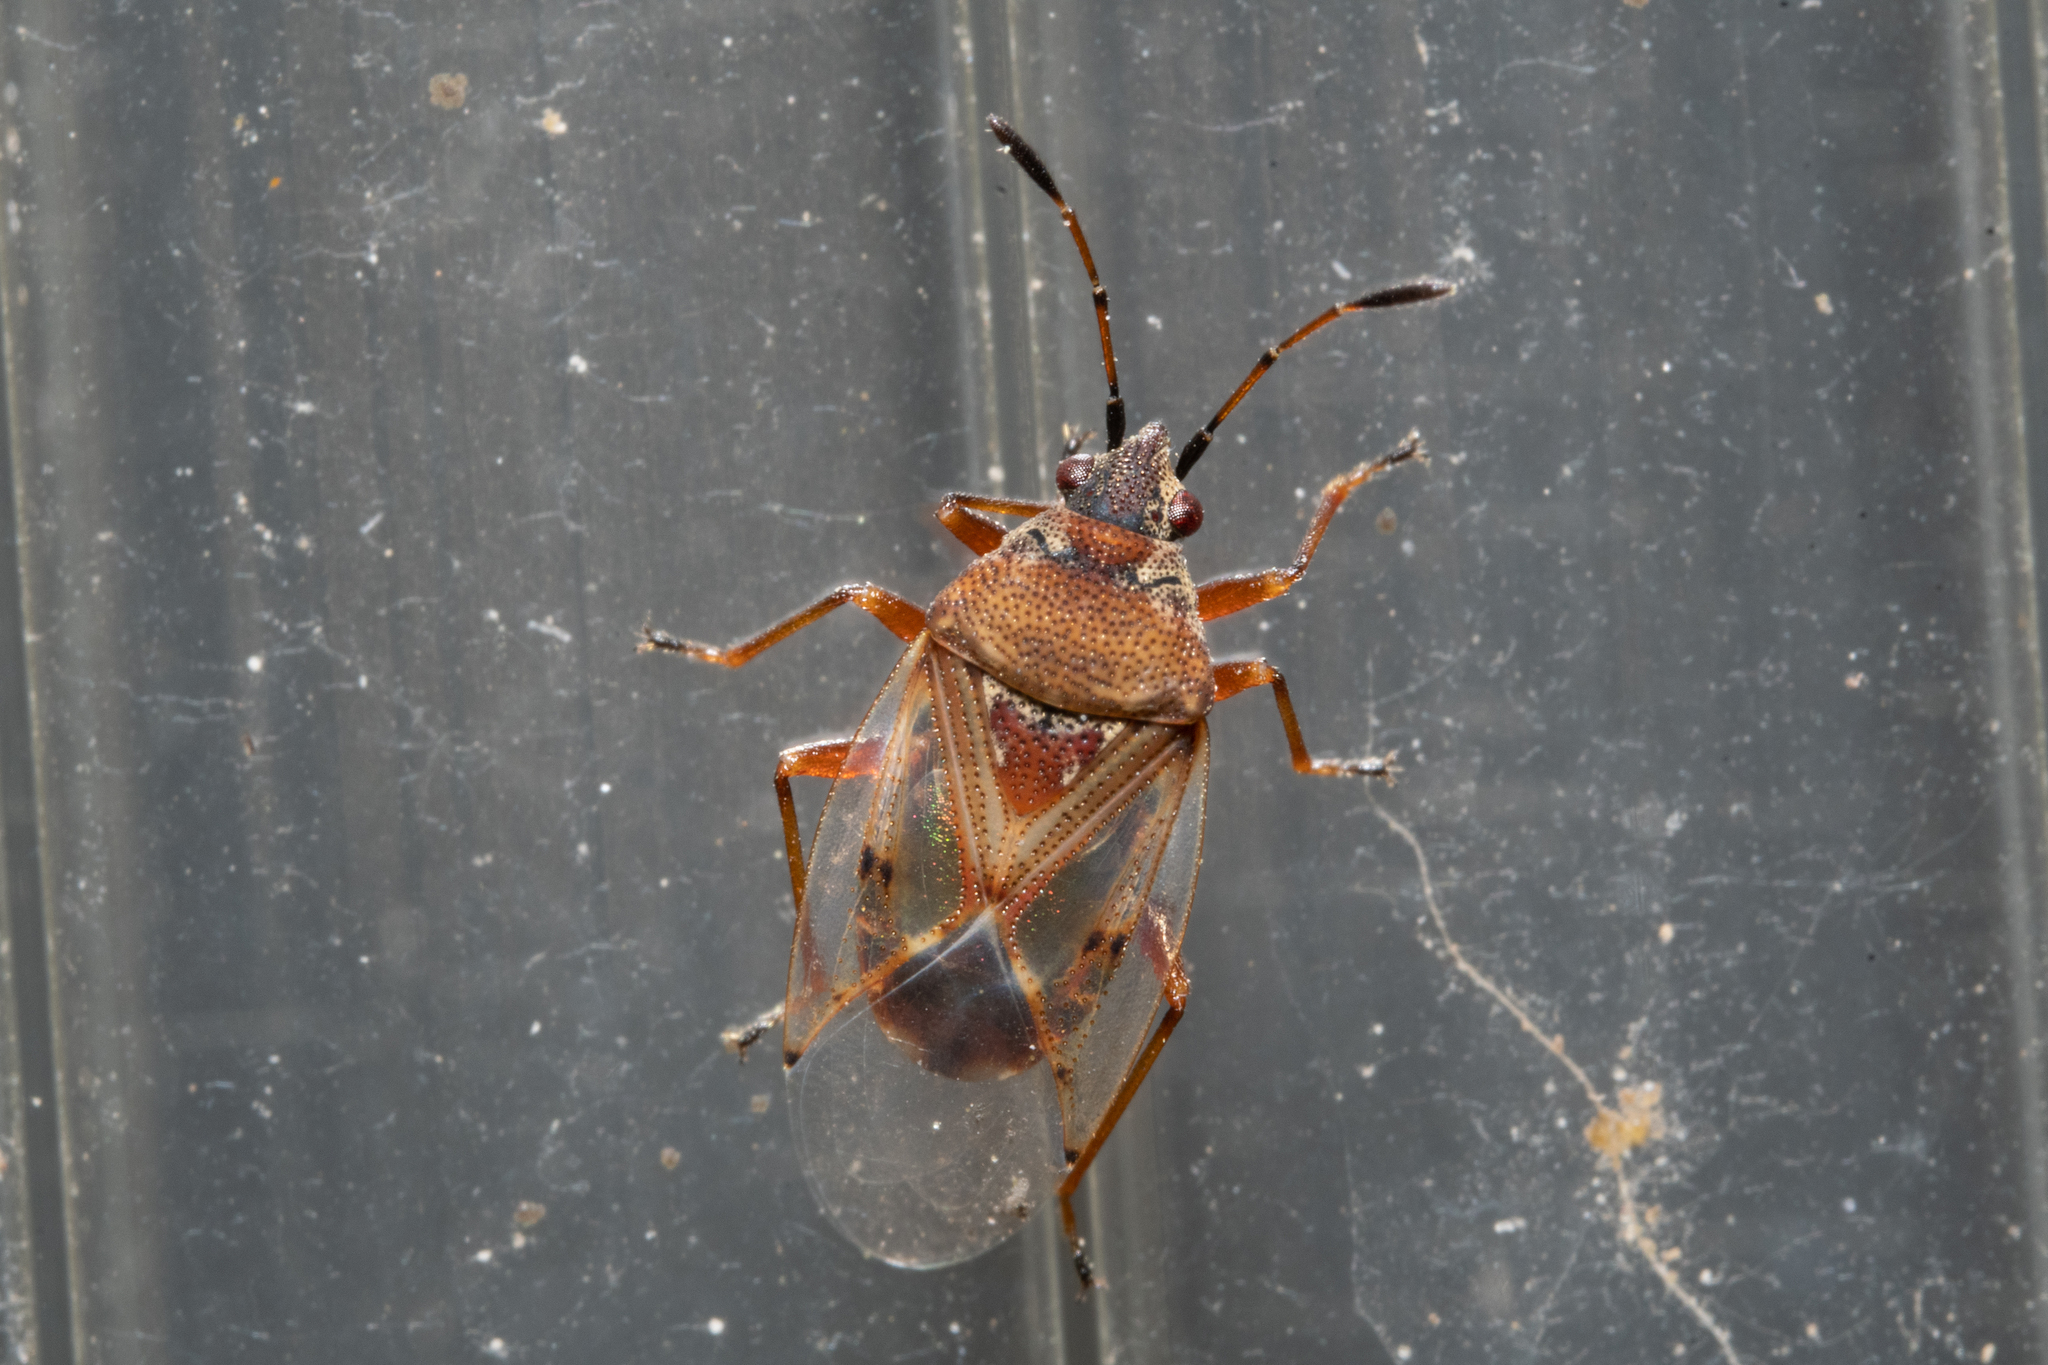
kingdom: Animalia
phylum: Arthropoda
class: Insecta
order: Hemiptera
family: Lygaeidae
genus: Kleidocerys
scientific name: Kleidocerys resedae
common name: Birch catkin bug
